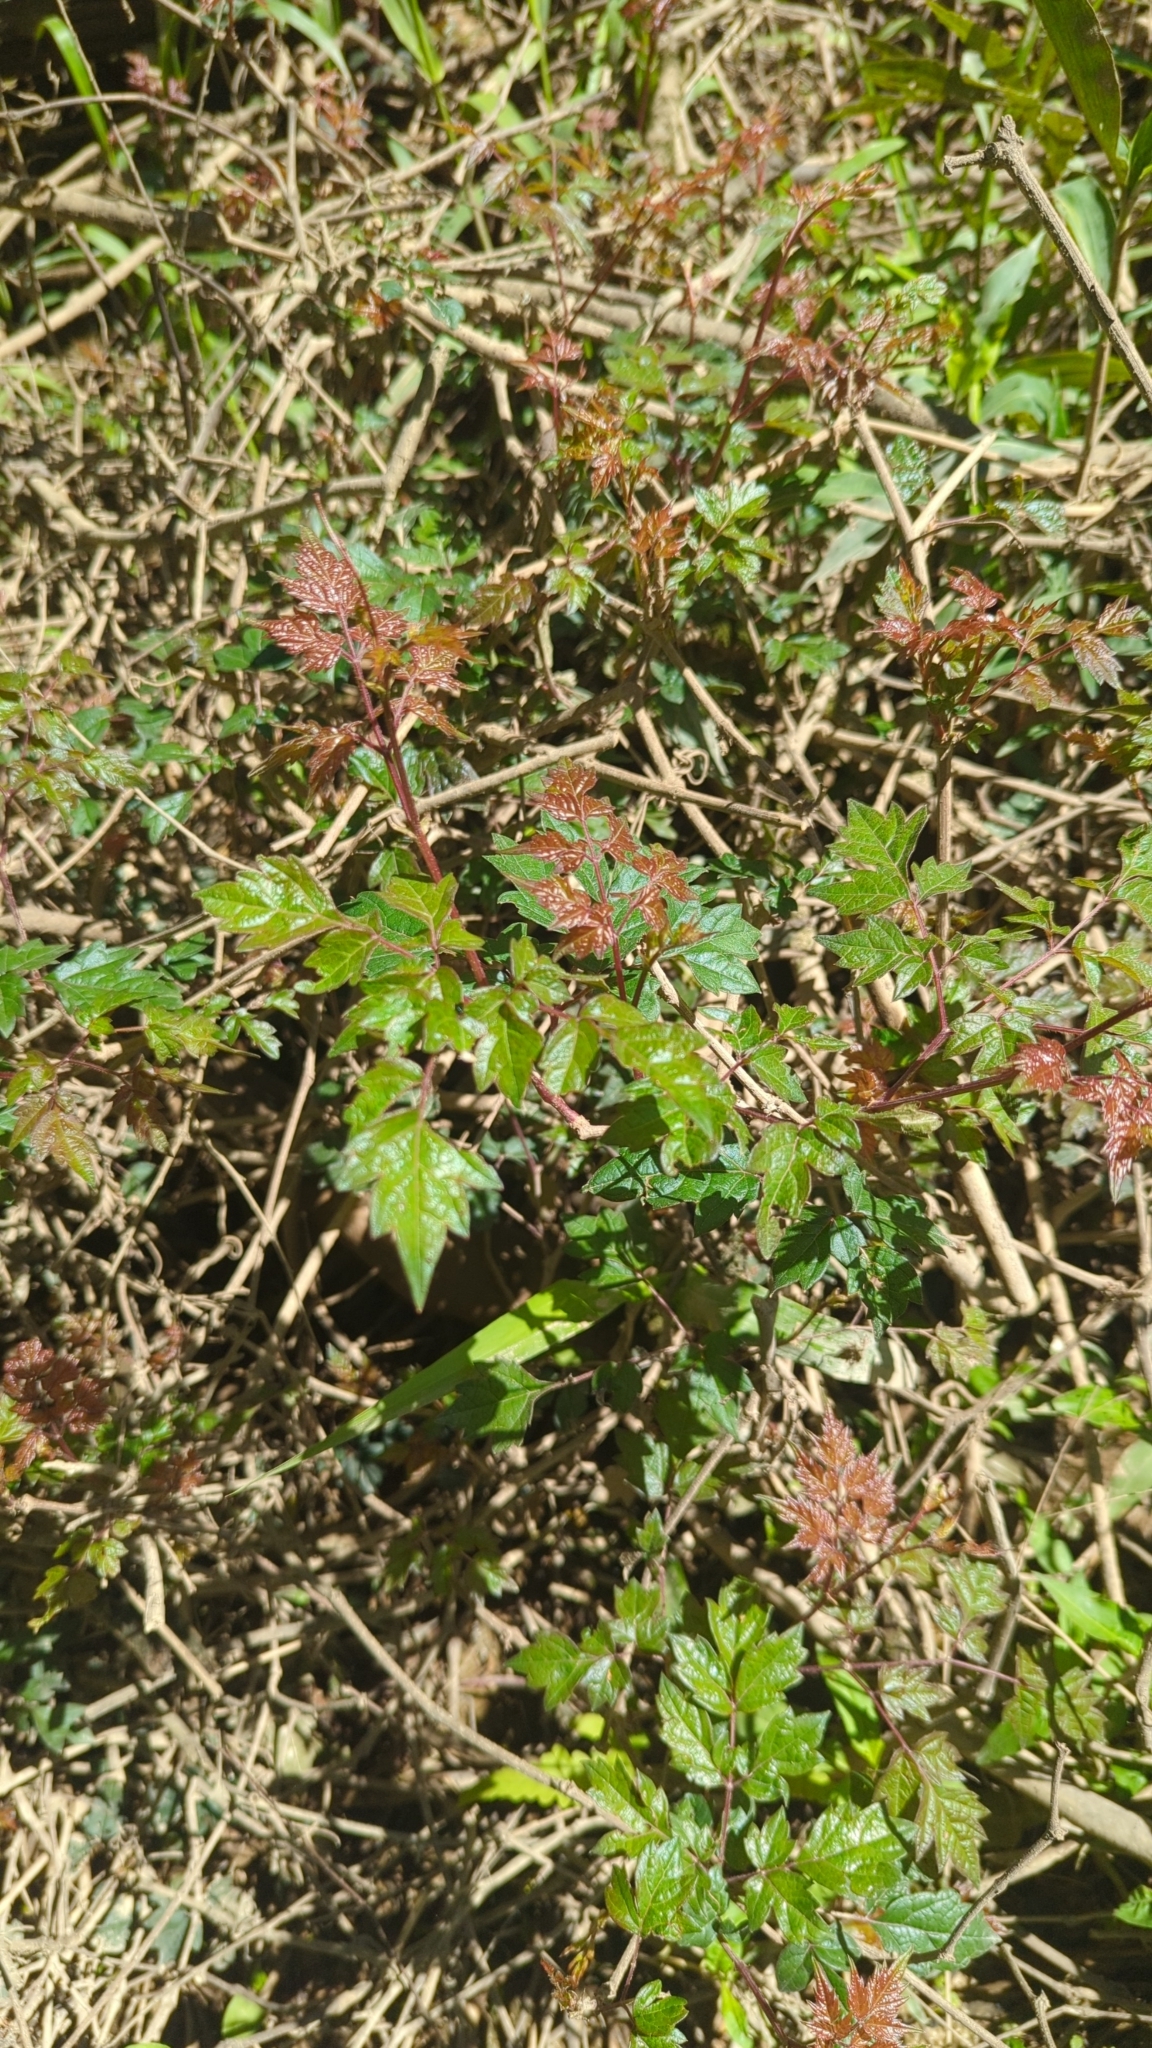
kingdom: Plantae
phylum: Tracheophyta
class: Magnoliopsida
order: Vitales
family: Vitaceae
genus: Nekemias
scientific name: Nekemias arborea
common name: Peppervine
